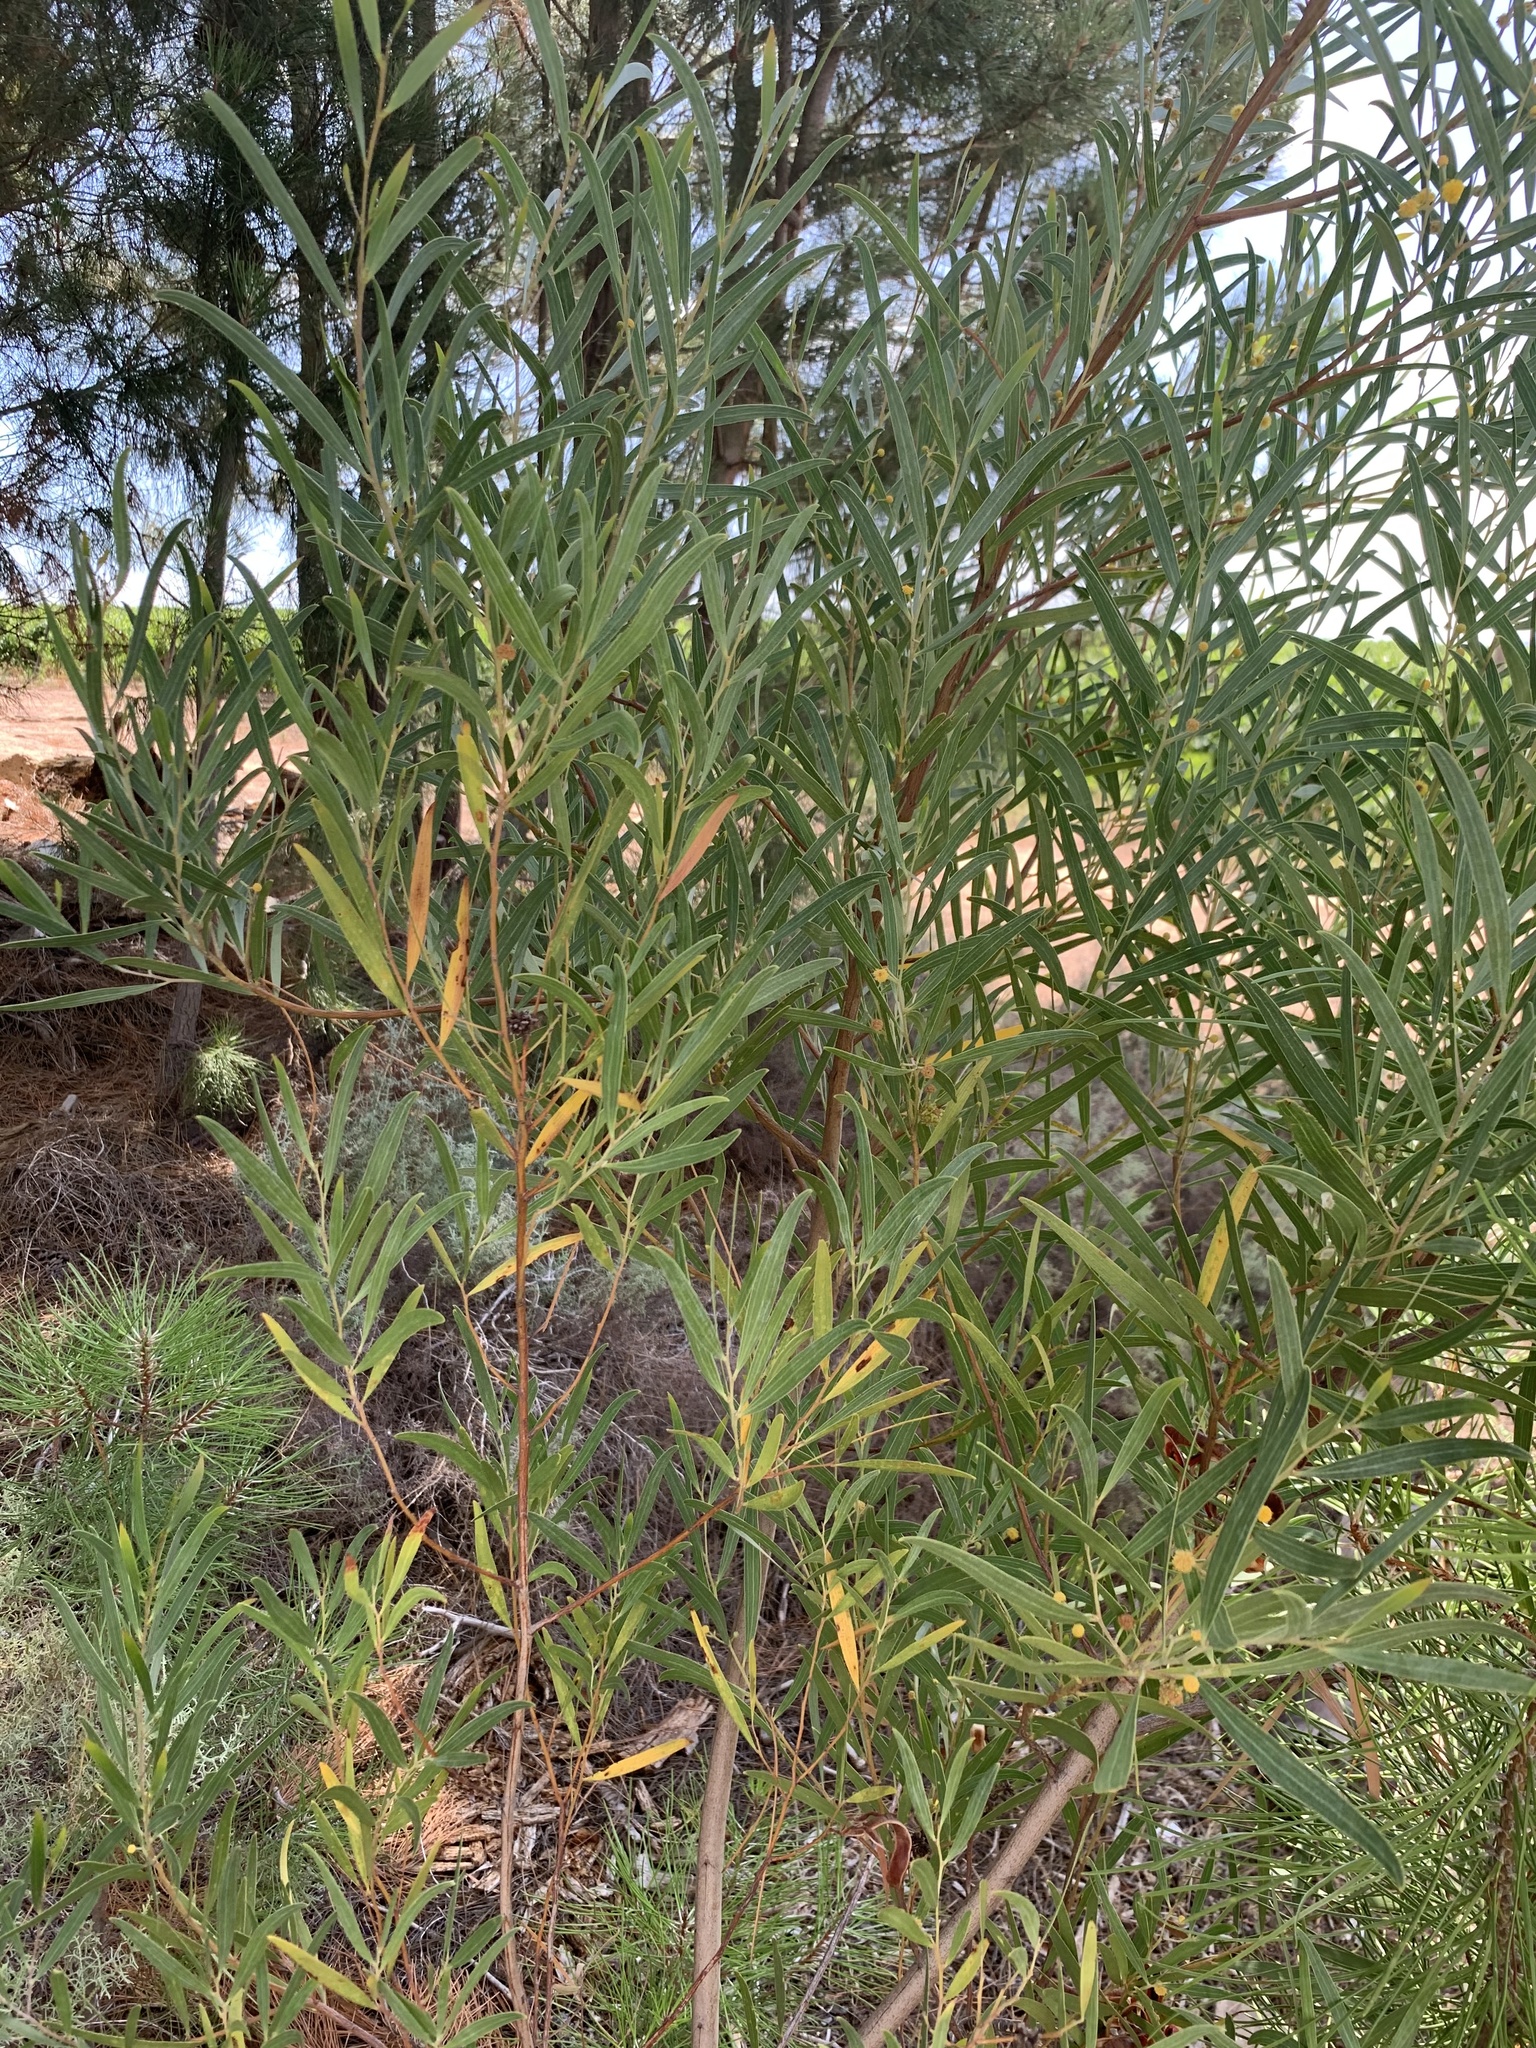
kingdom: Plantae
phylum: Tracheophyta
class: Magnoliopsida
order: Fabales
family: Fabaceae
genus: Acacia
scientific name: Acacia cyclops
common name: Coastal wattle
